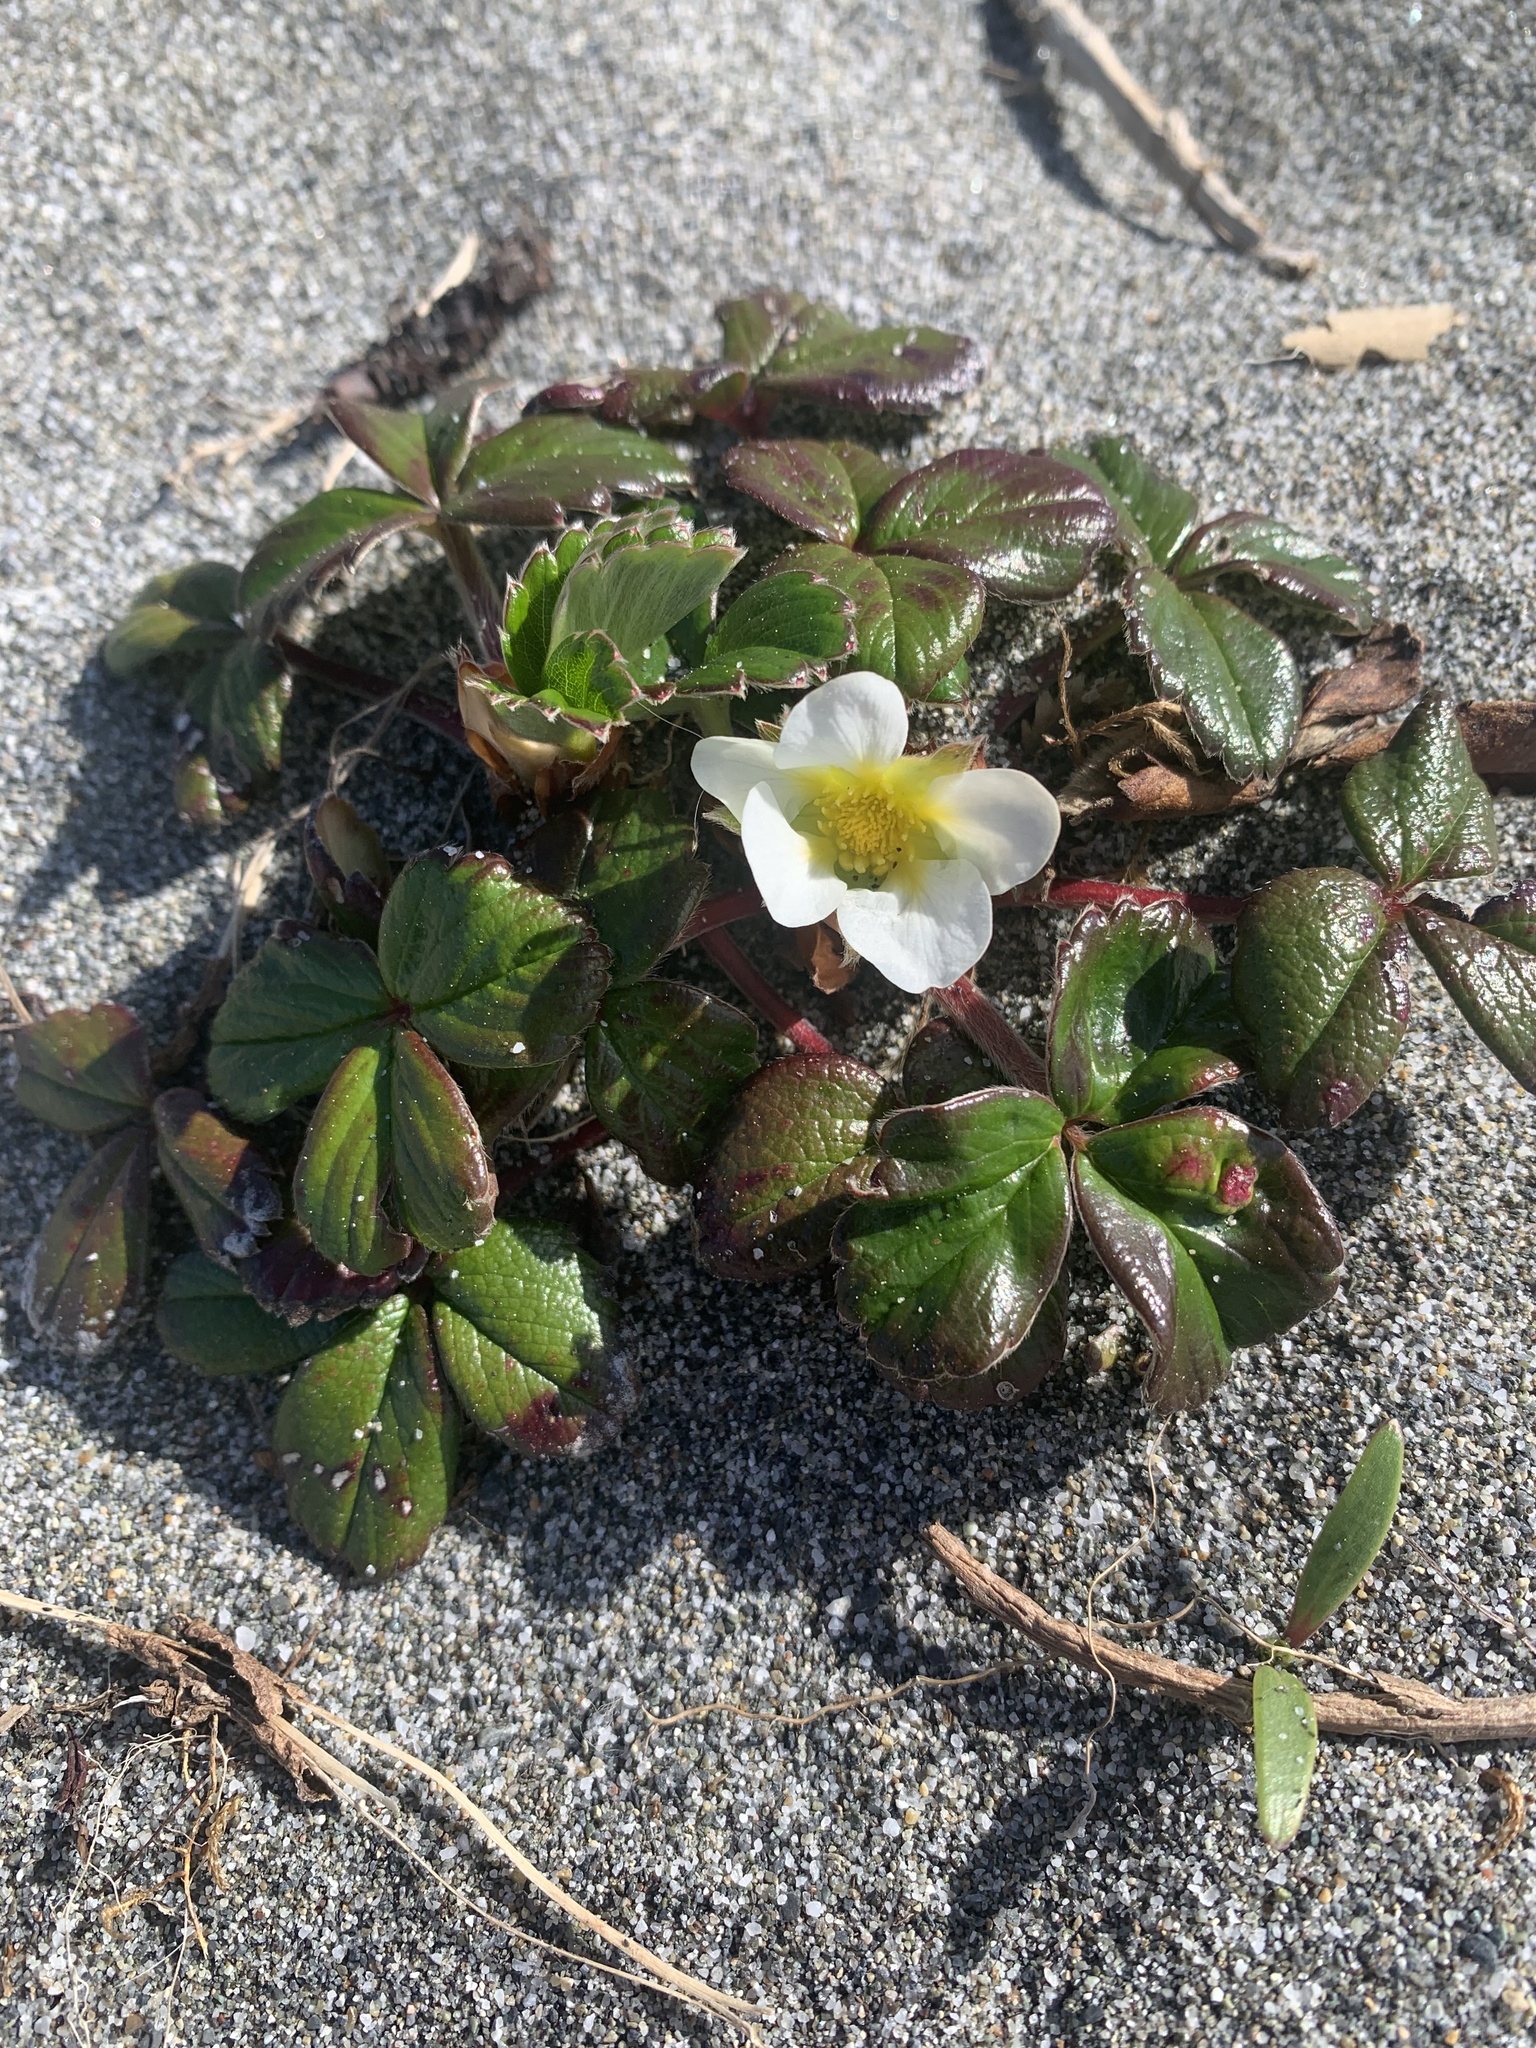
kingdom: Plantae
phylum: Tracheophyta
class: Magnoliopsida
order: Rosales
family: Rosaceae
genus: Fragaria
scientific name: Fragaria chiloensis
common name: Beach strawberry
